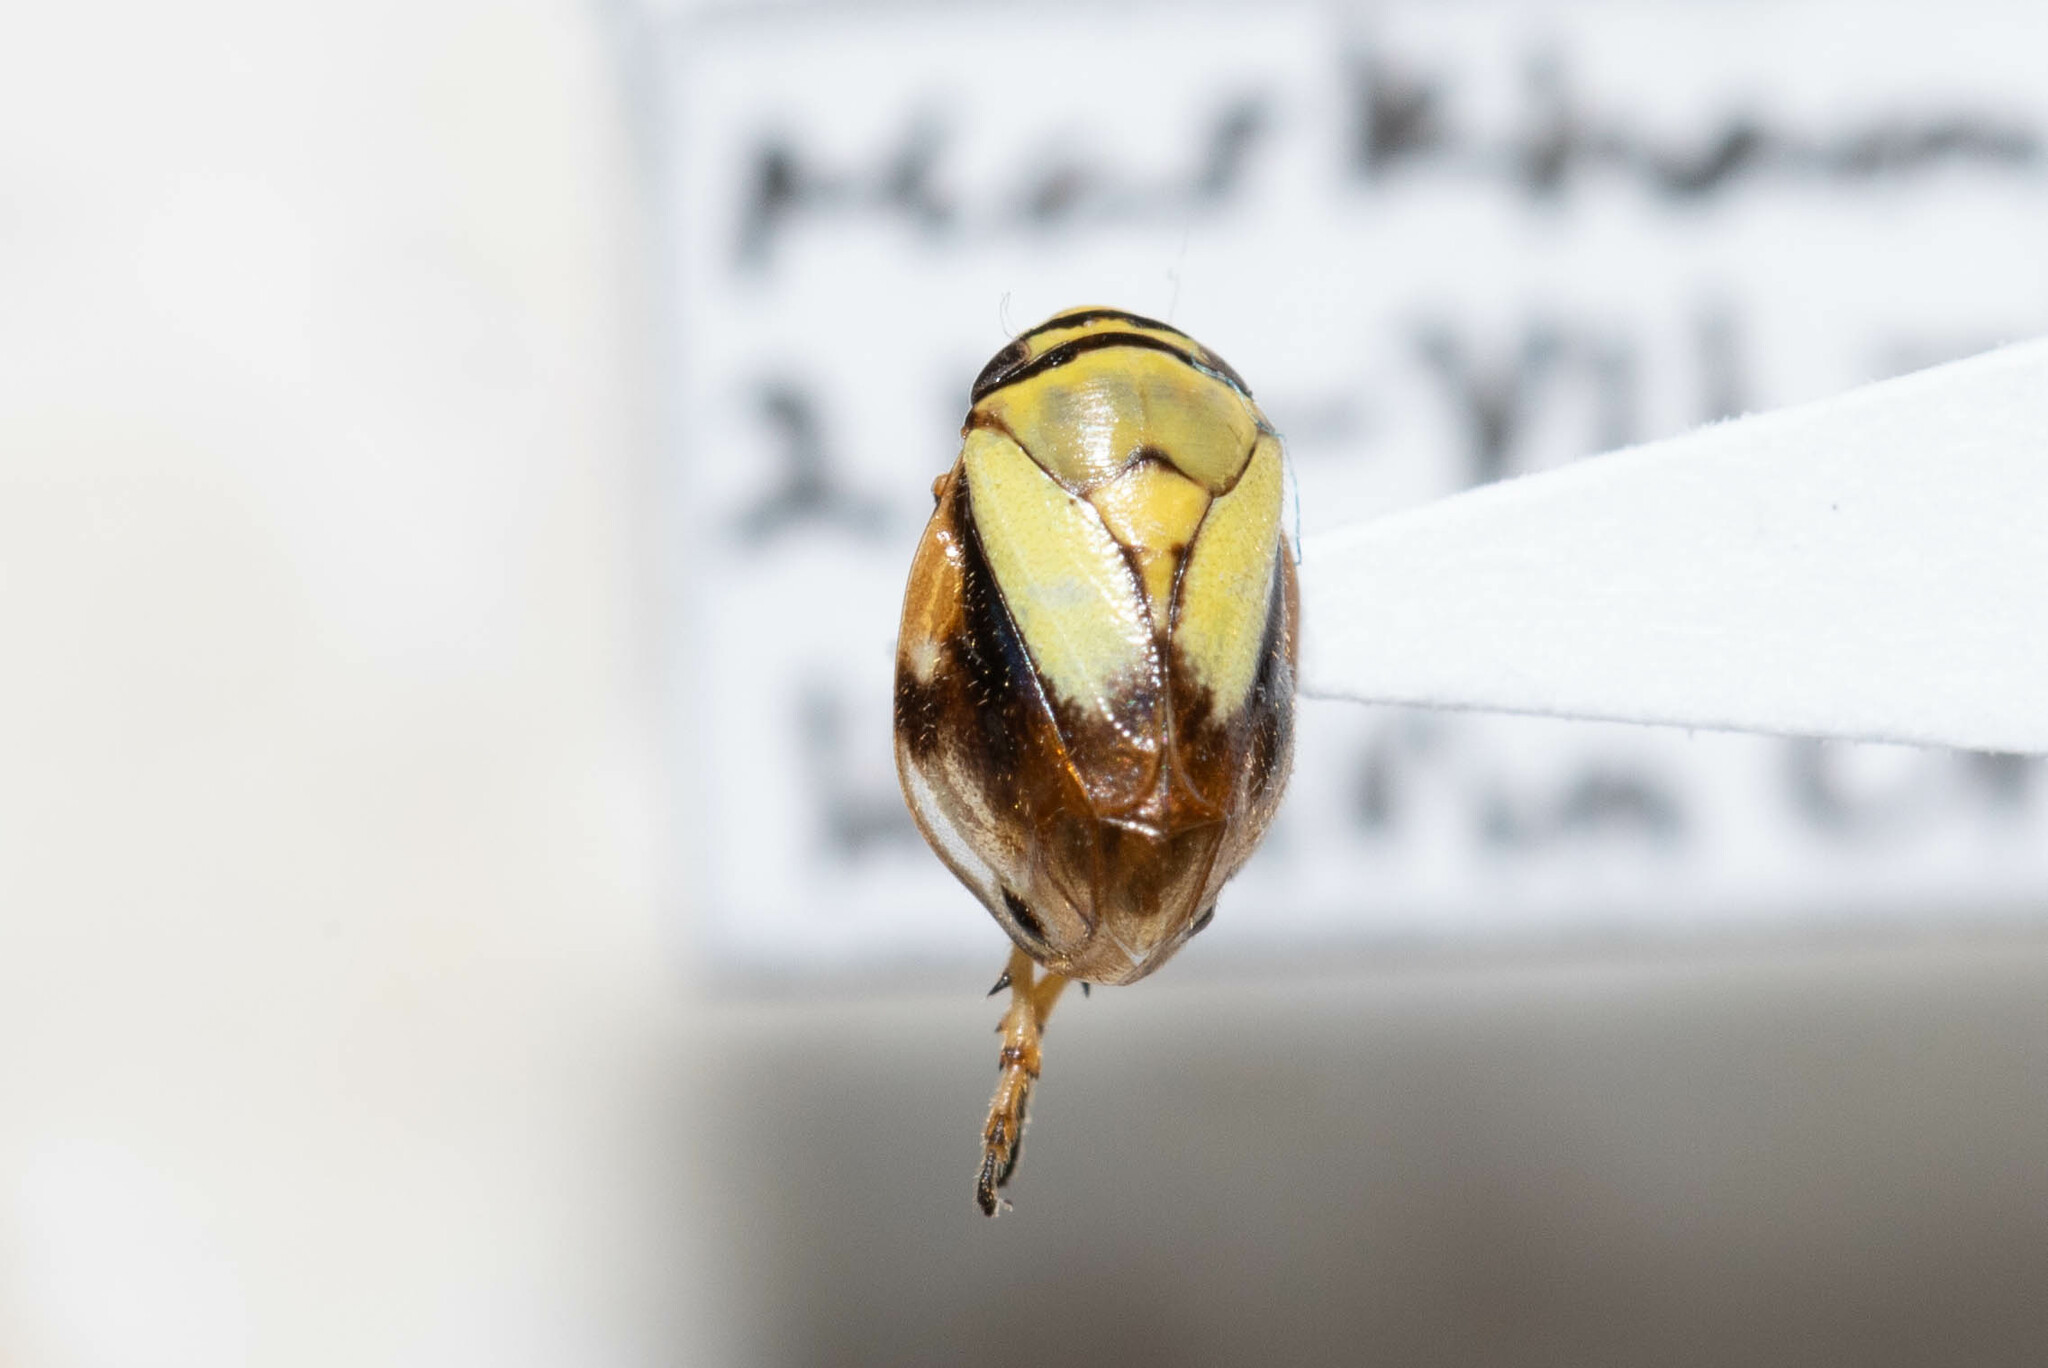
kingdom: Animalia
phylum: Arthropoda
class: Insecta
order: Hemiptera
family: Clastopteridae
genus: Clastoptera
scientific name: Clastoptera proteus
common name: Dogwood spittlebug
